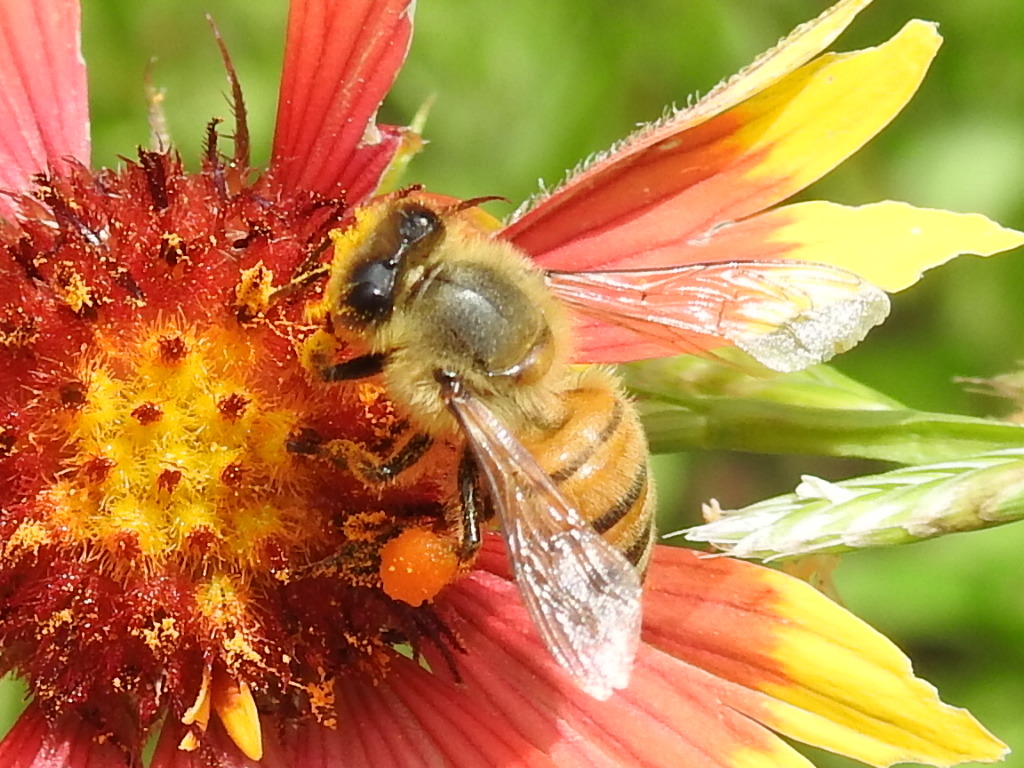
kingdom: Animalia
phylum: Arthropoda
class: Insecta
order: Hymenoptera
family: Apidae
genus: Apis
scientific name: Apis mellifera
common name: Honey bee
